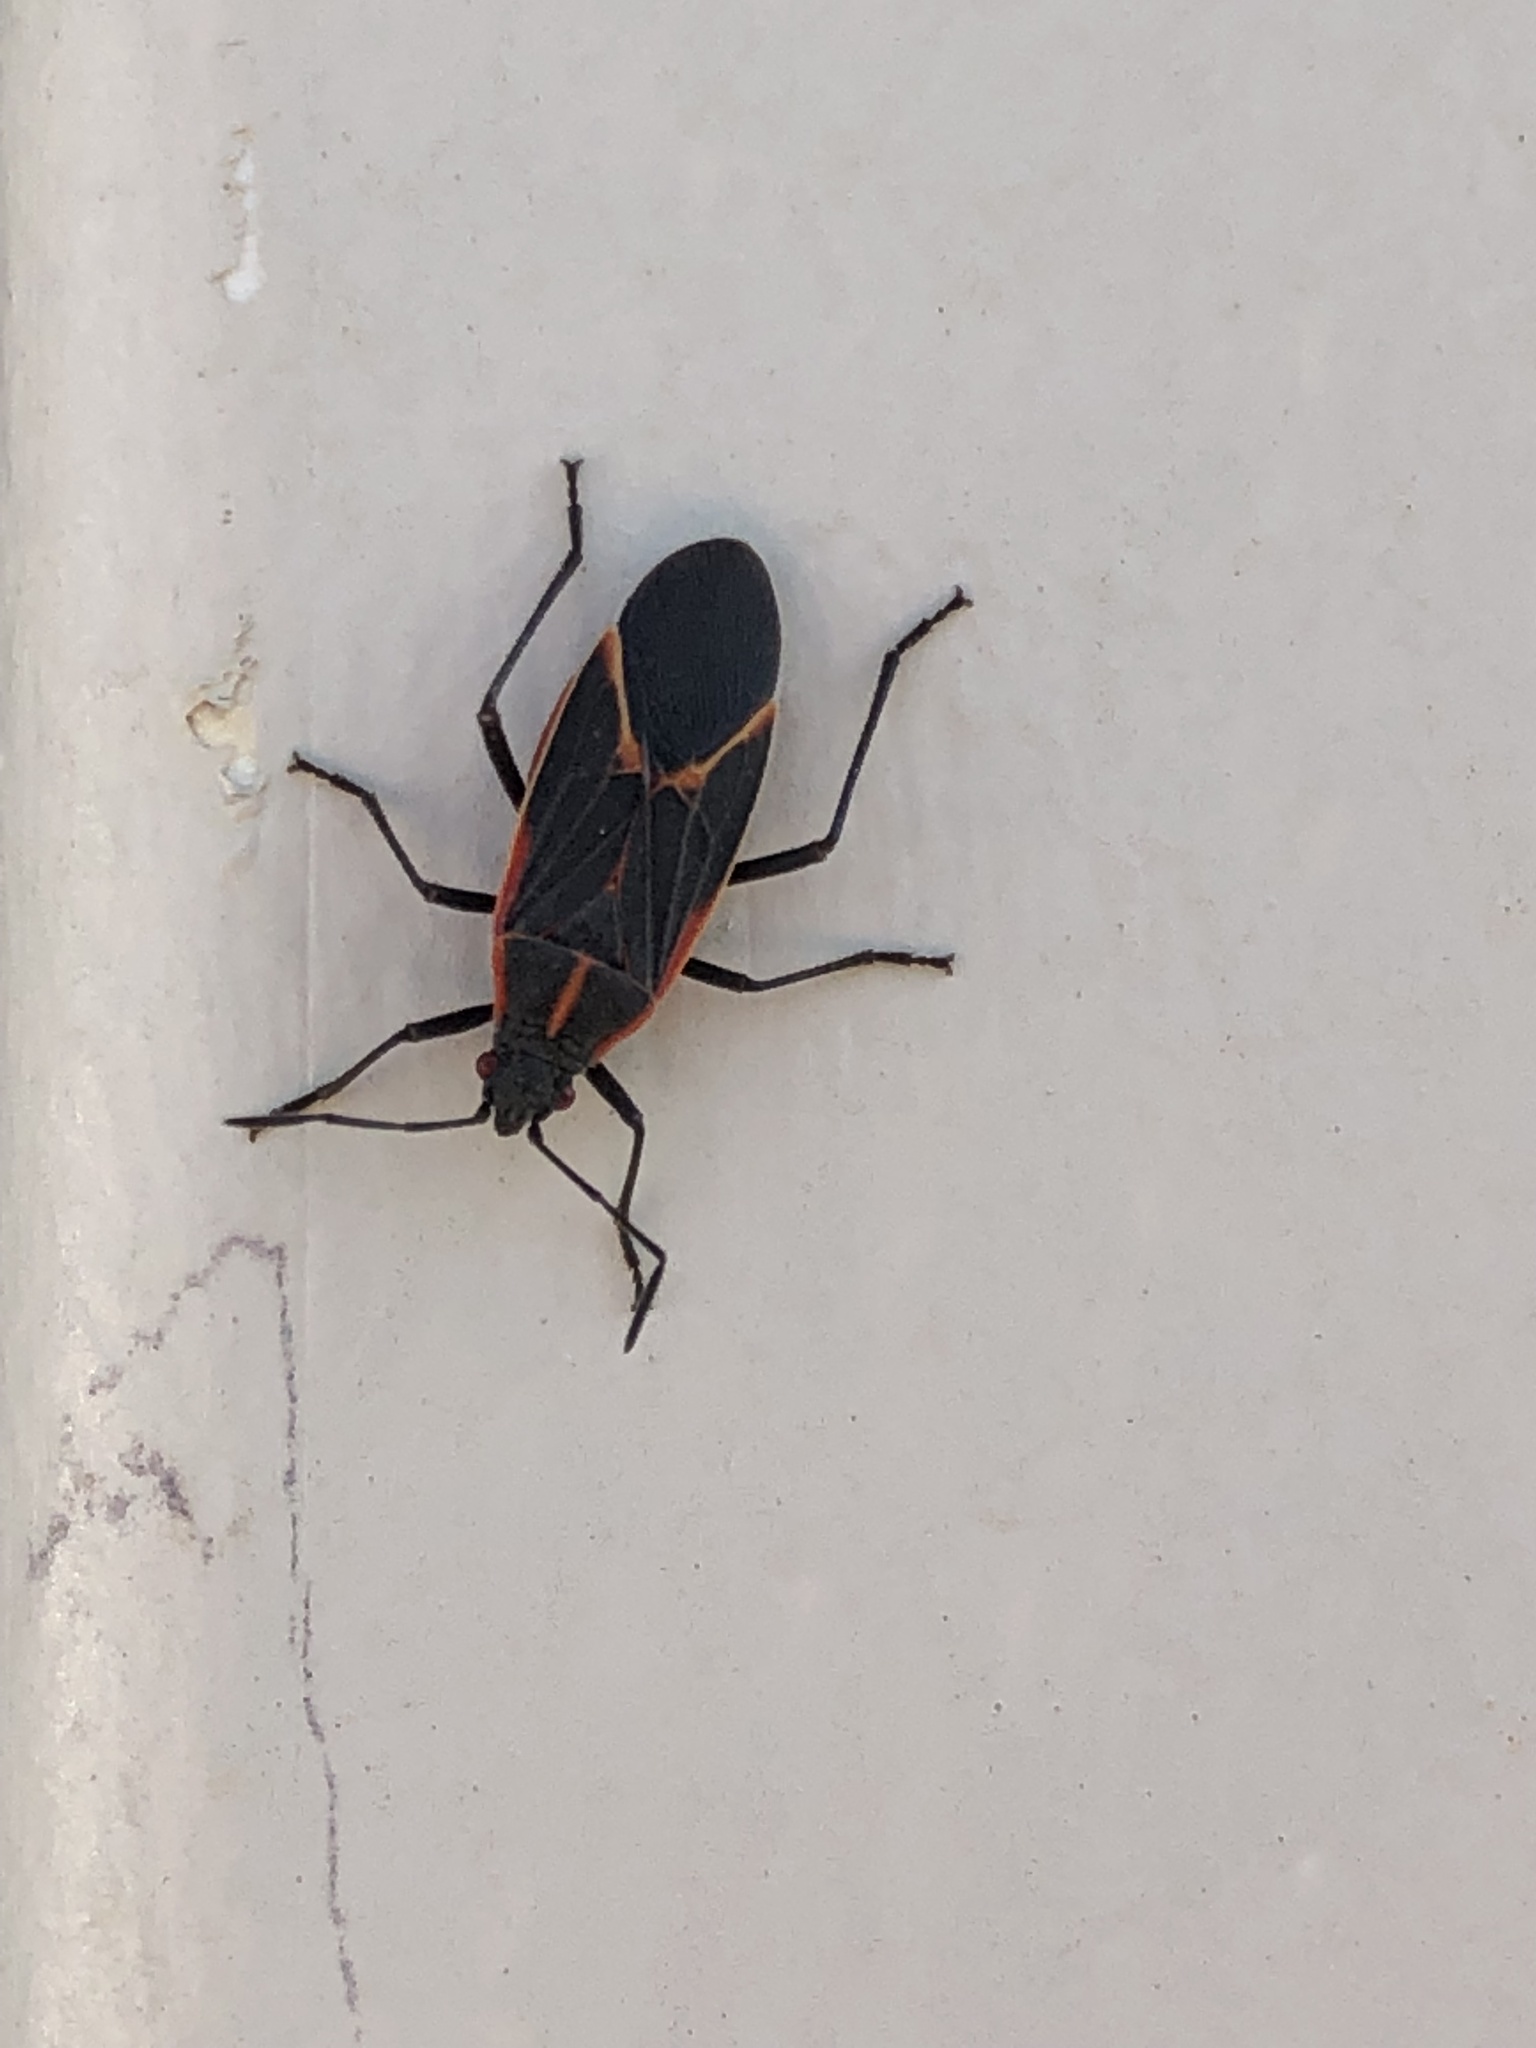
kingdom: Animalia
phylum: Arthropoda
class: Insecta
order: Hemiptera
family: Rhopalidae
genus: Boisea
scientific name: Boisea trivittata
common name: Boxelder bug
